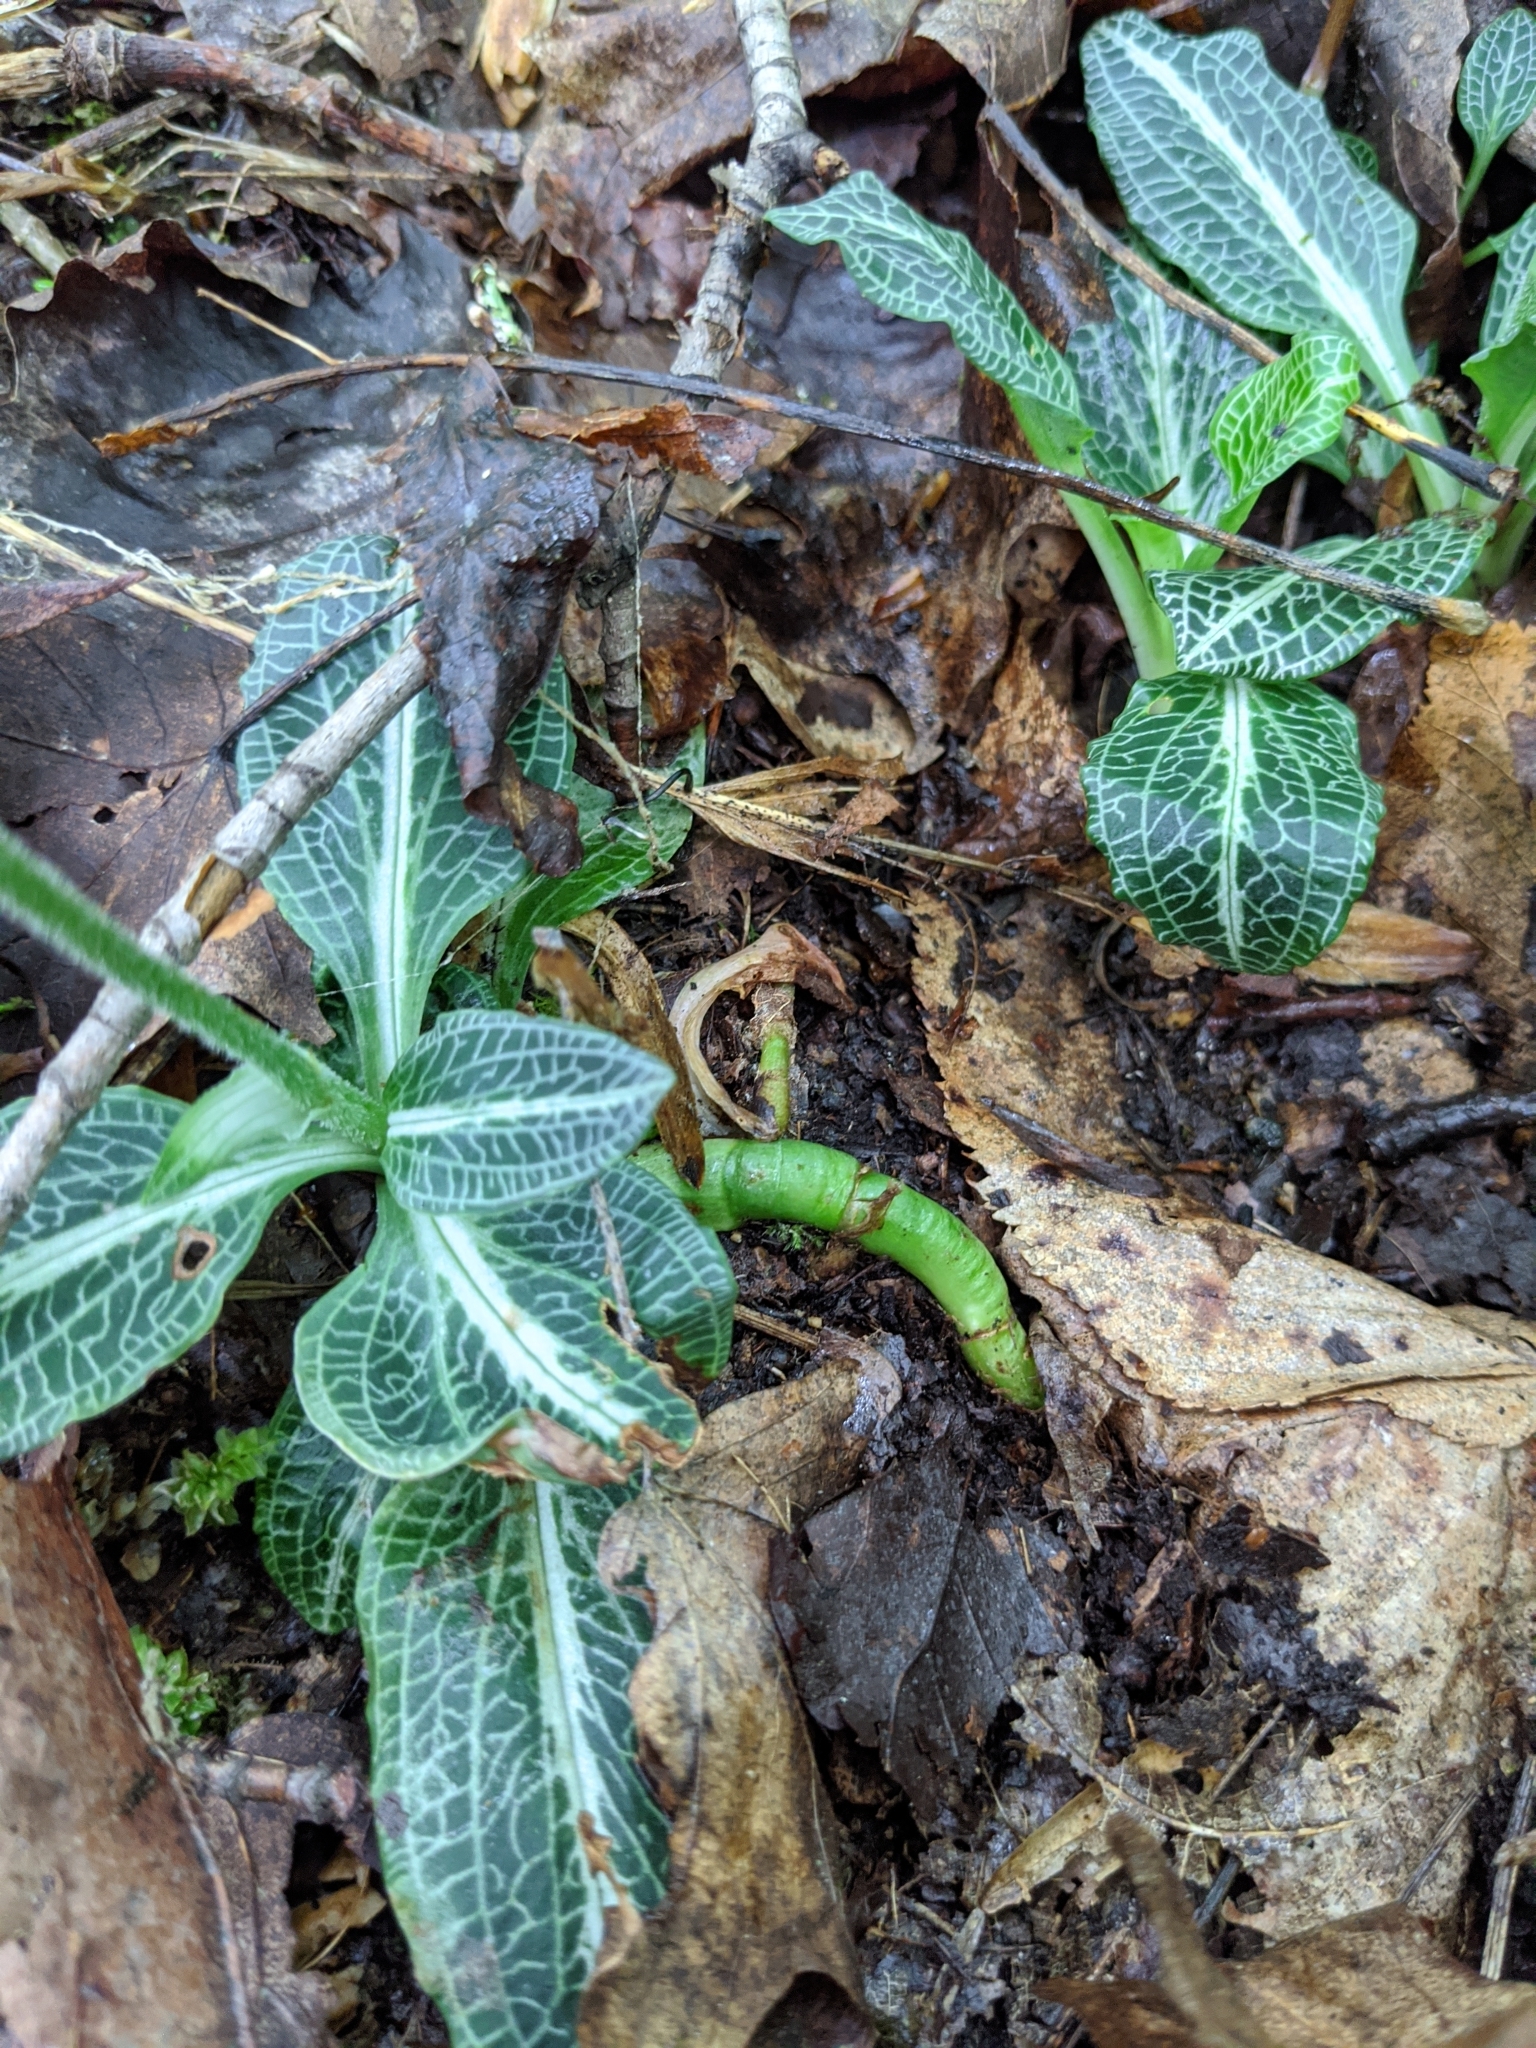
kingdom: Plantae
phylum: Tracheophyta
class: Liliopsida
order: Asparagales
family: Orchidaceae
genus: Goodyera
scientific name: Goodyera pubescens
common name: Downy rattlesnake-plantain
